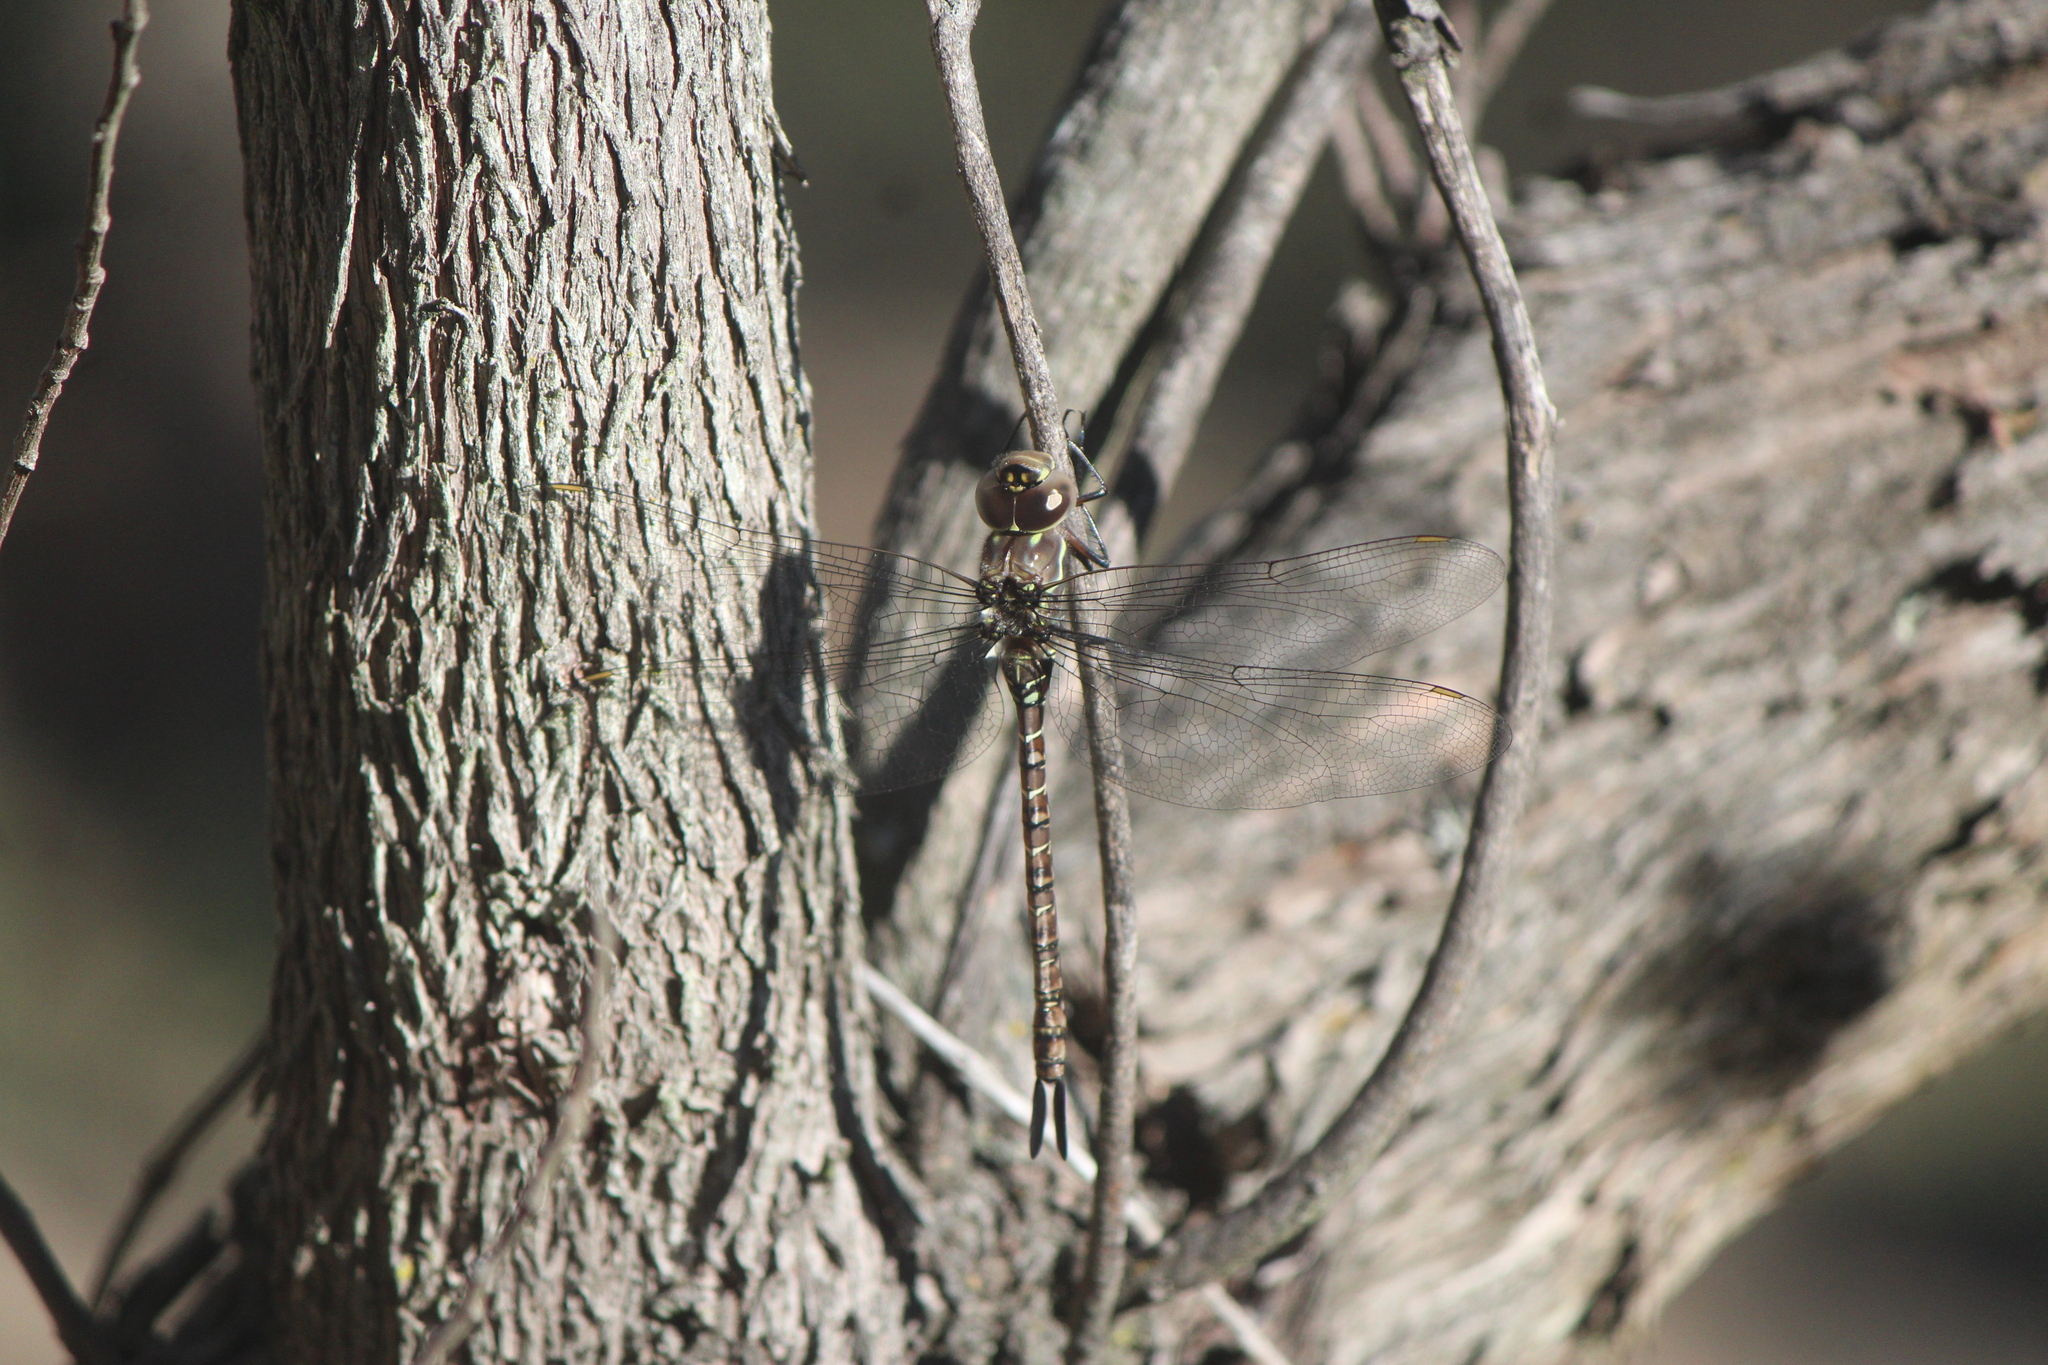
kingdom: Animalia
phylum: Arthropoda
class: Insecta
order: Odonata
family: Aeshnidae
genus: Rhionaeschna
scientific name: Rhionaeschna psilus
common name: Turquoise-tipped darner
